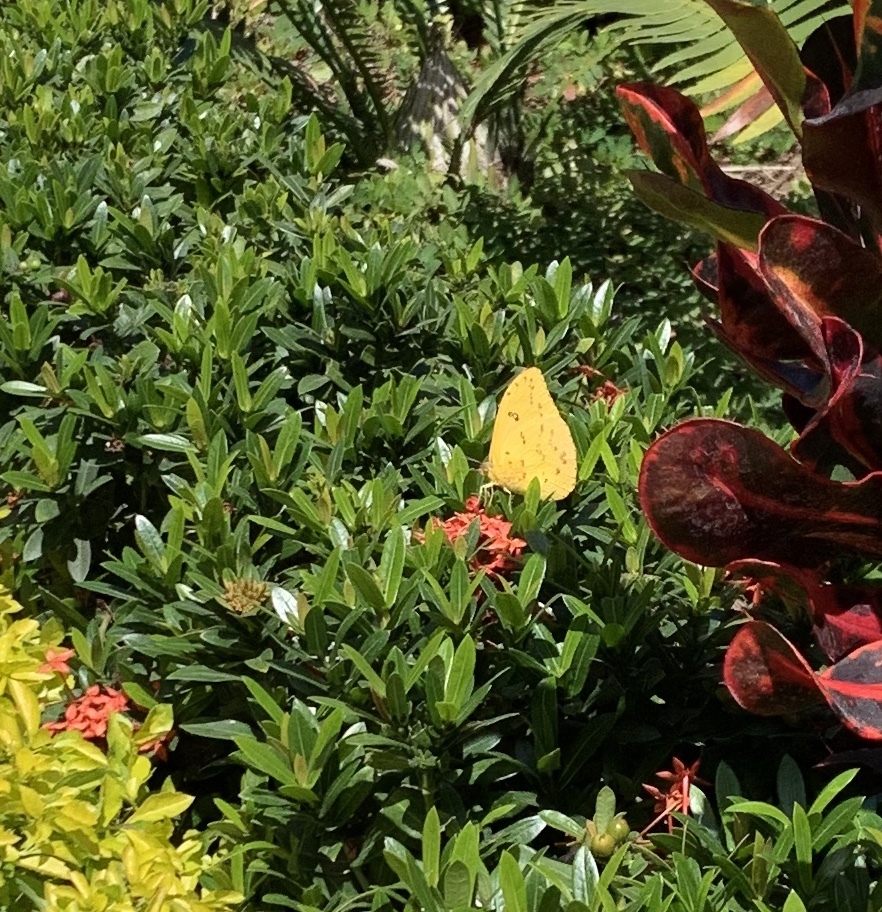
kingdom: Animalia
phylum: Arthropoda
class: Insecta
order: Lepidoptera
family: Pieridae
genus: Phoebis
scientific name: Phoebis marcellina
